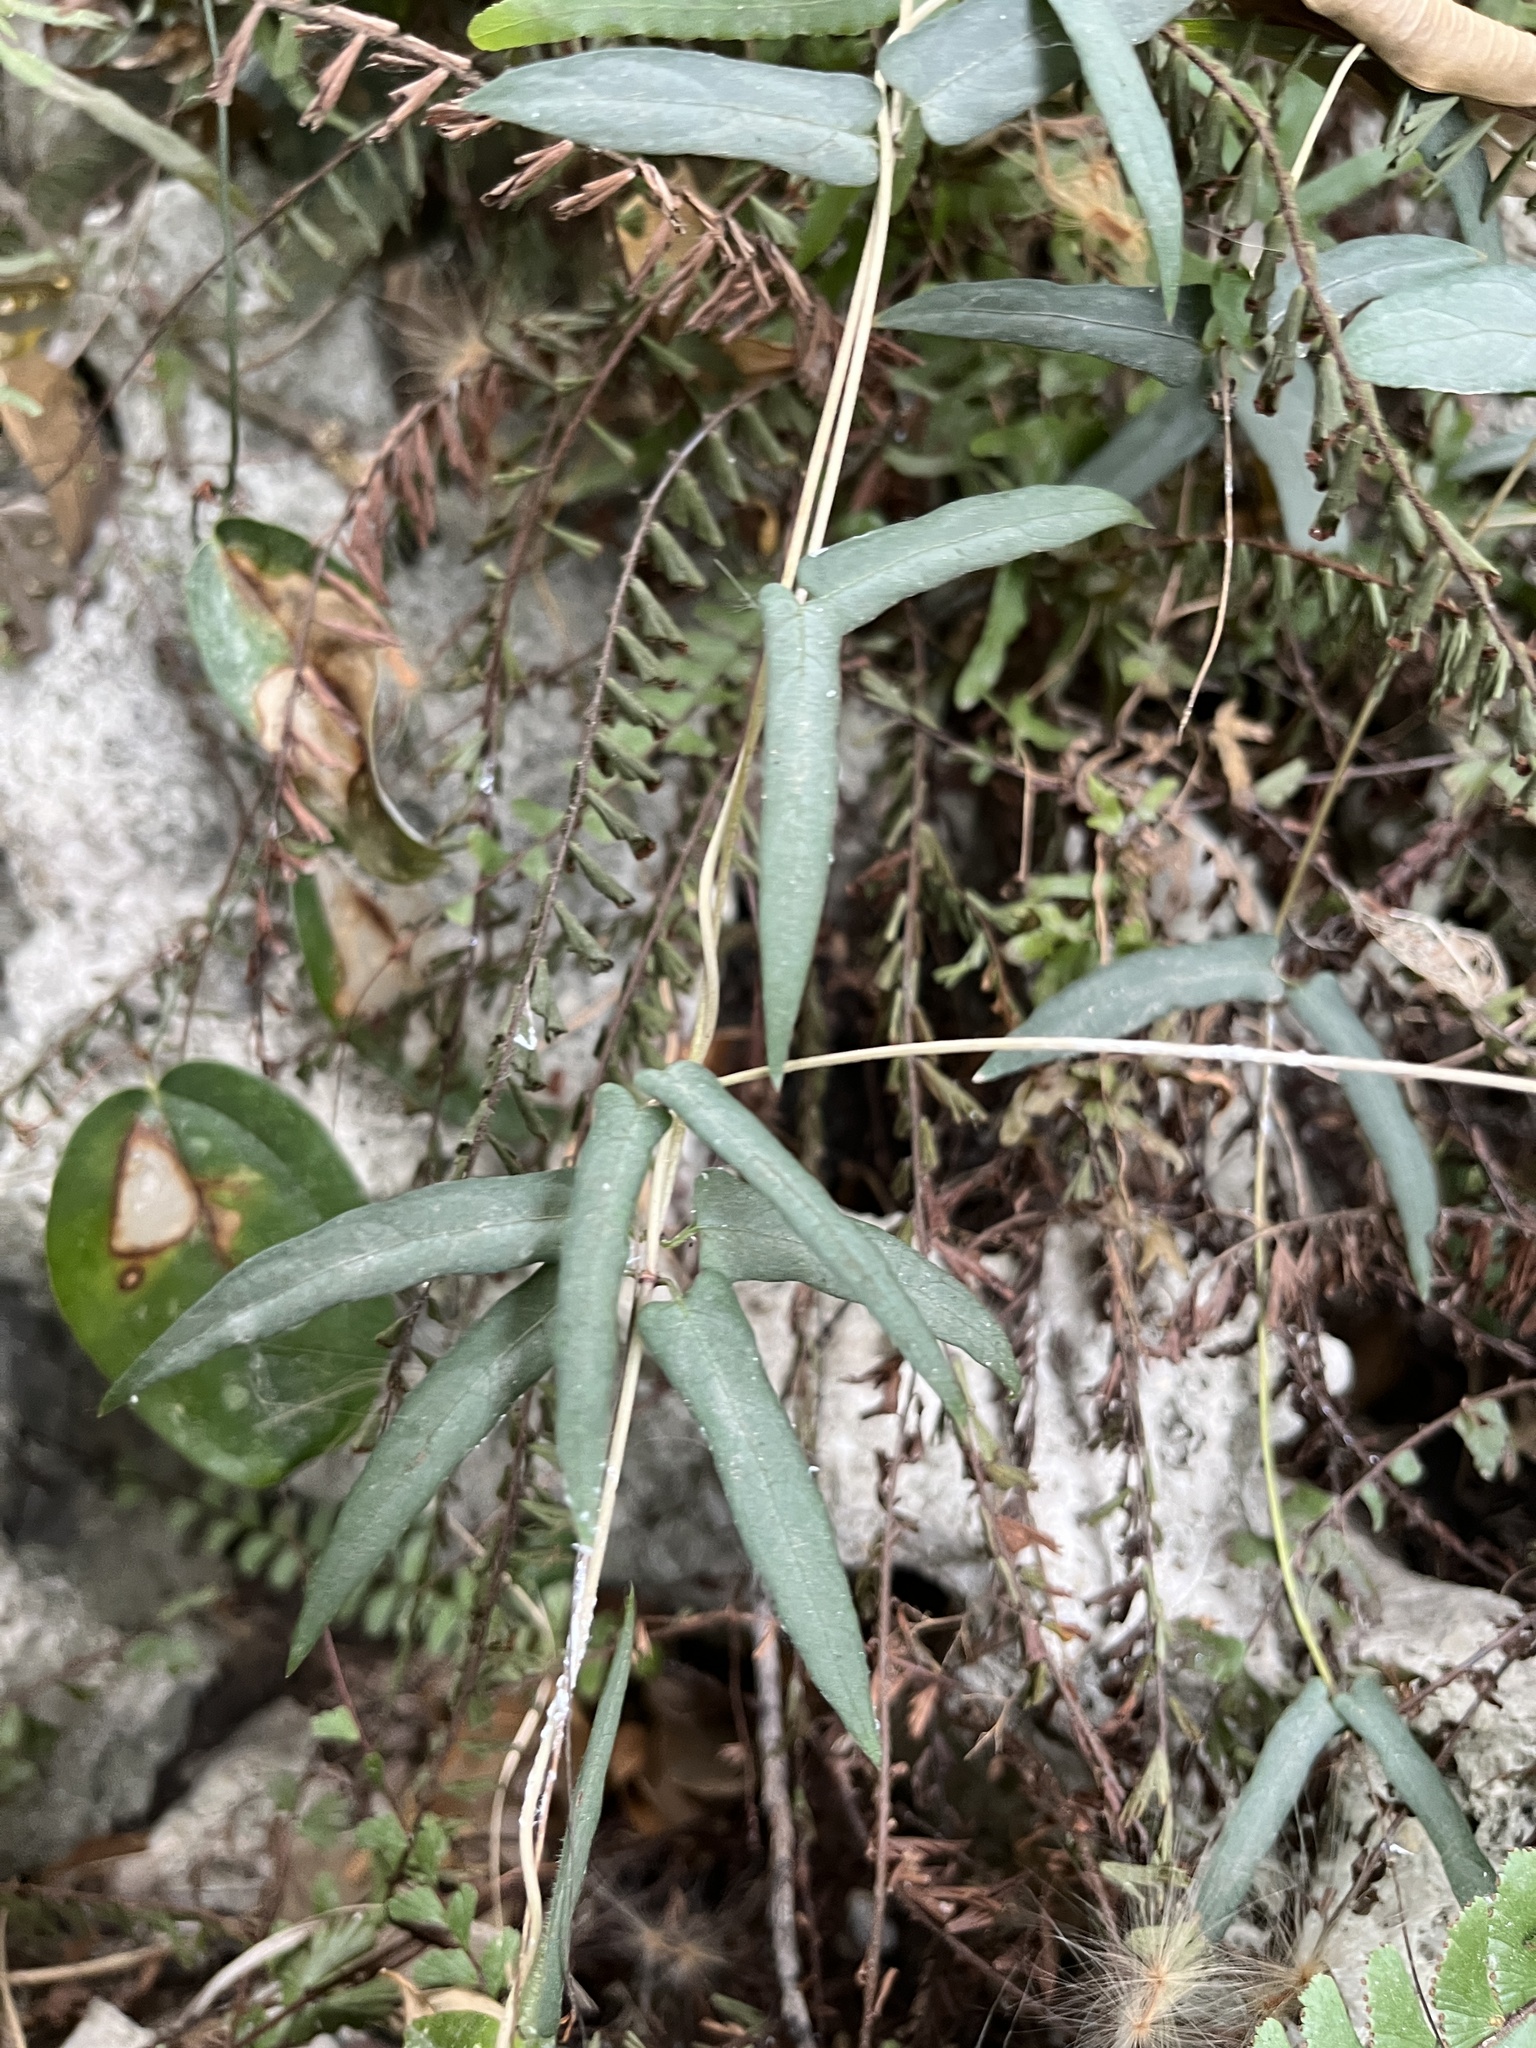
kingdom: Plantae
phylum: Tracheophyta
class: Magnoliopsida
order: Gentianales
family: Rubiaceae
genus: Paederia
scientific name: Paederia foetida
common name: Stinkvine
